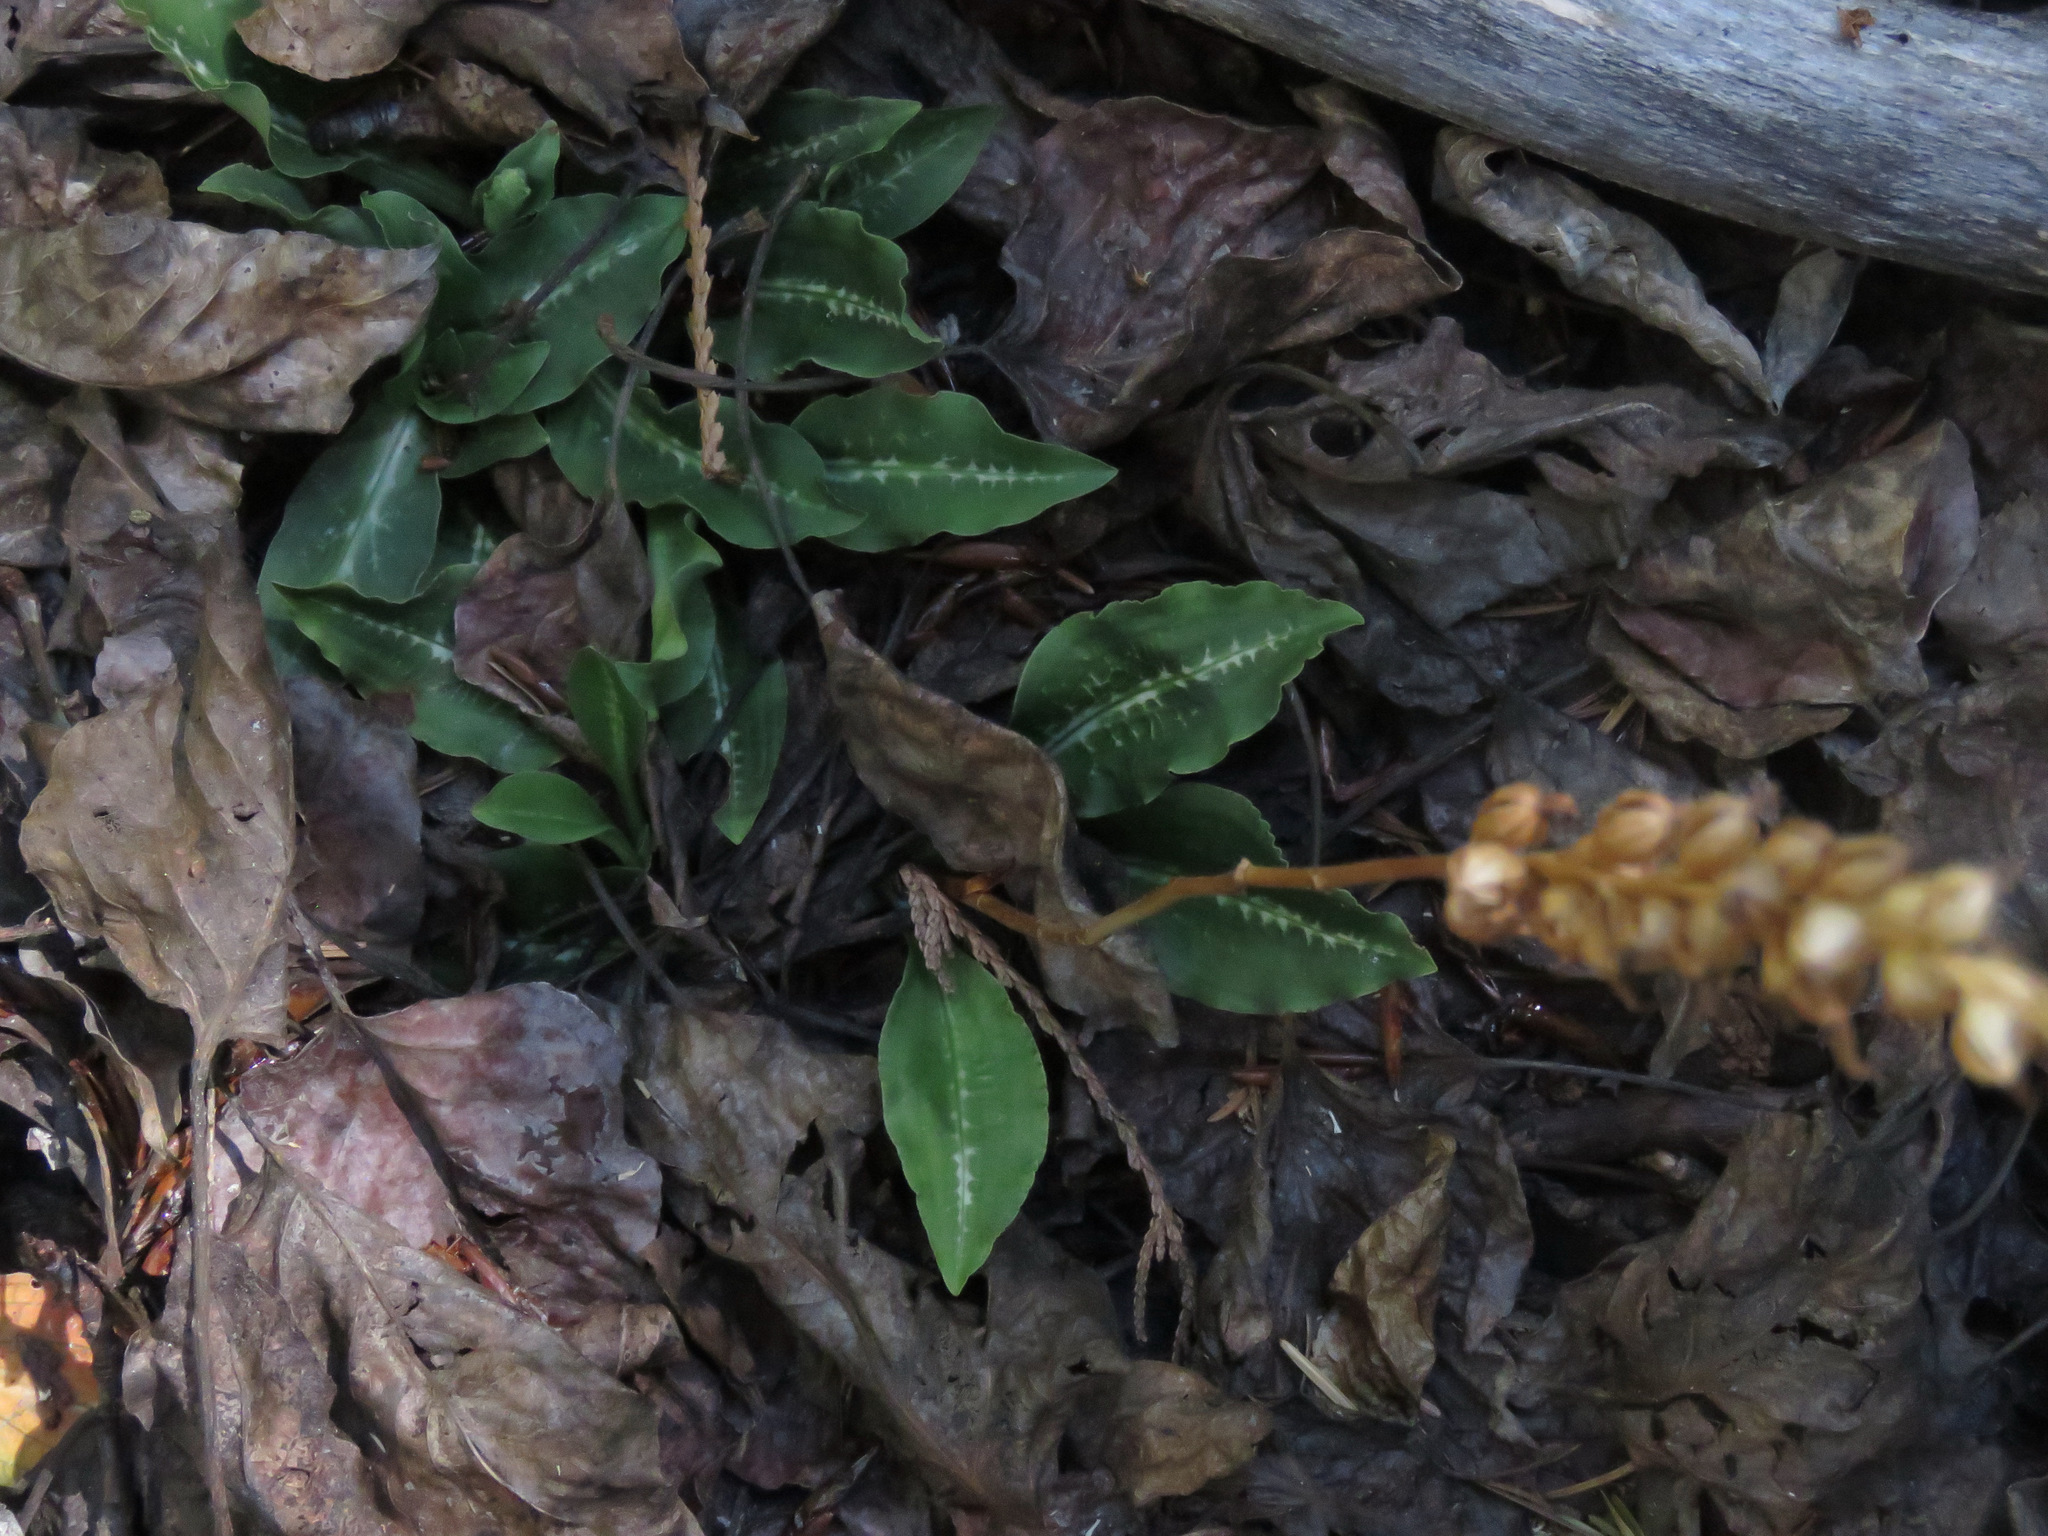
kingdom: Plantae
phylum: Tracheophyta
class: Liliopsida
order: Asparagales
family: Orchidaceae
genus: Goodyera
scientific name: Goodyera oblongifolia
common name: Giant rattlesnake-plantain
